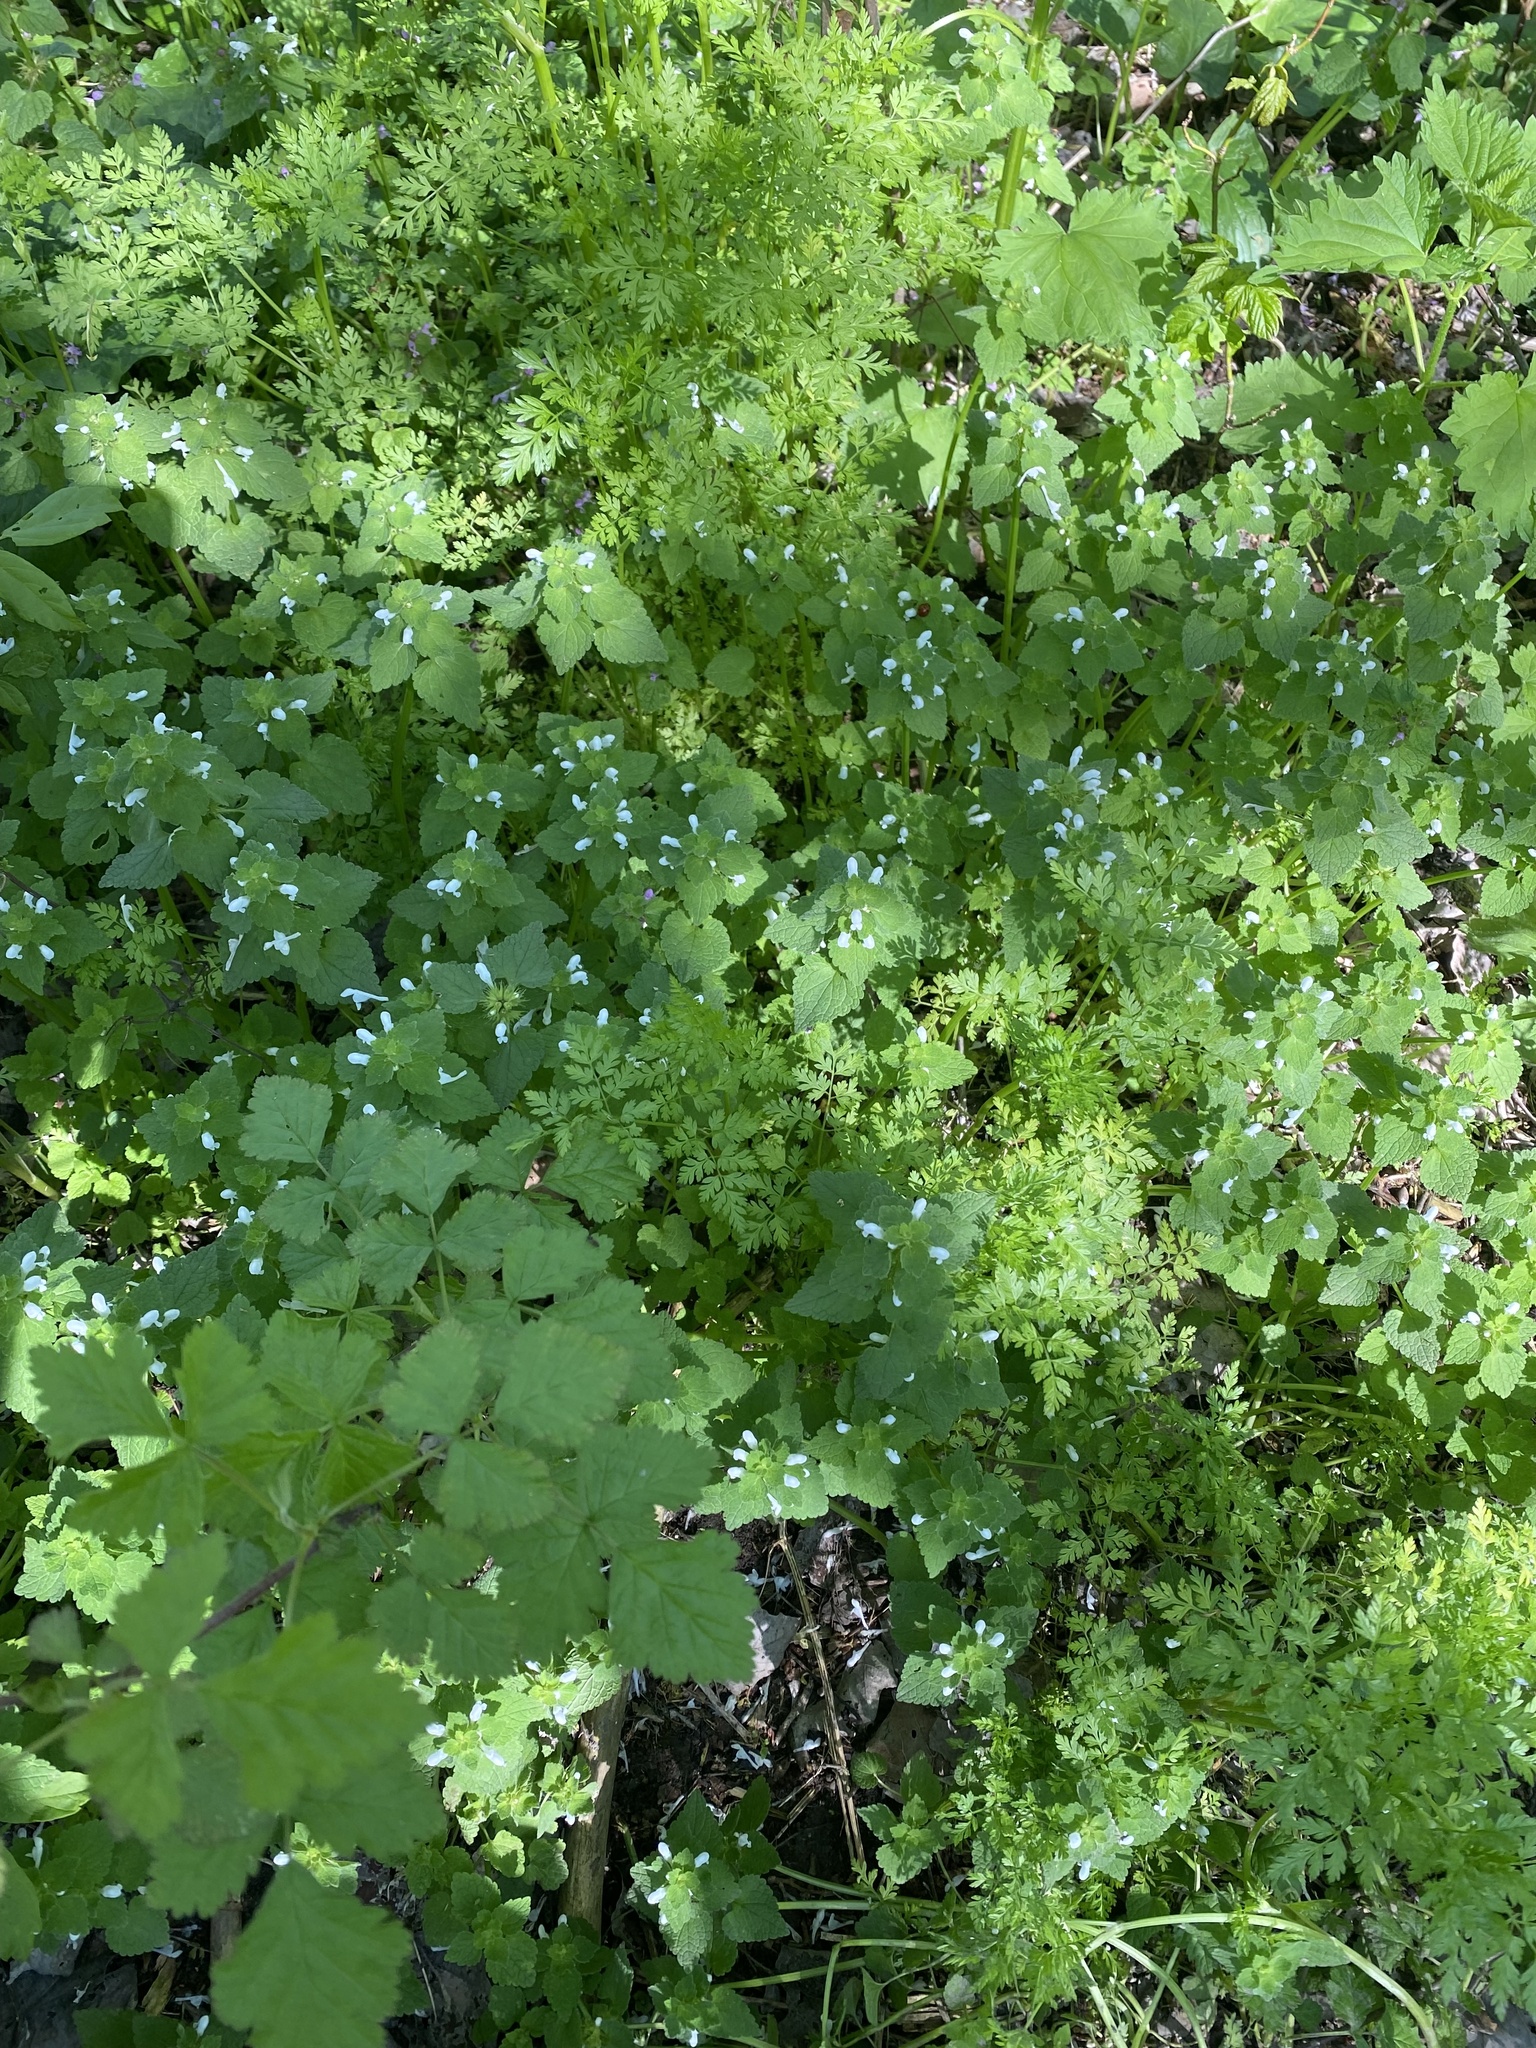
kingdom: Plantae
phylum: Tracheophyta
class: Magnoliopsida
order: Lamiales
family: Lamiaceae
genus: Lamium
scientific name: Lamium purpureum
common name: Red dead-nettle
